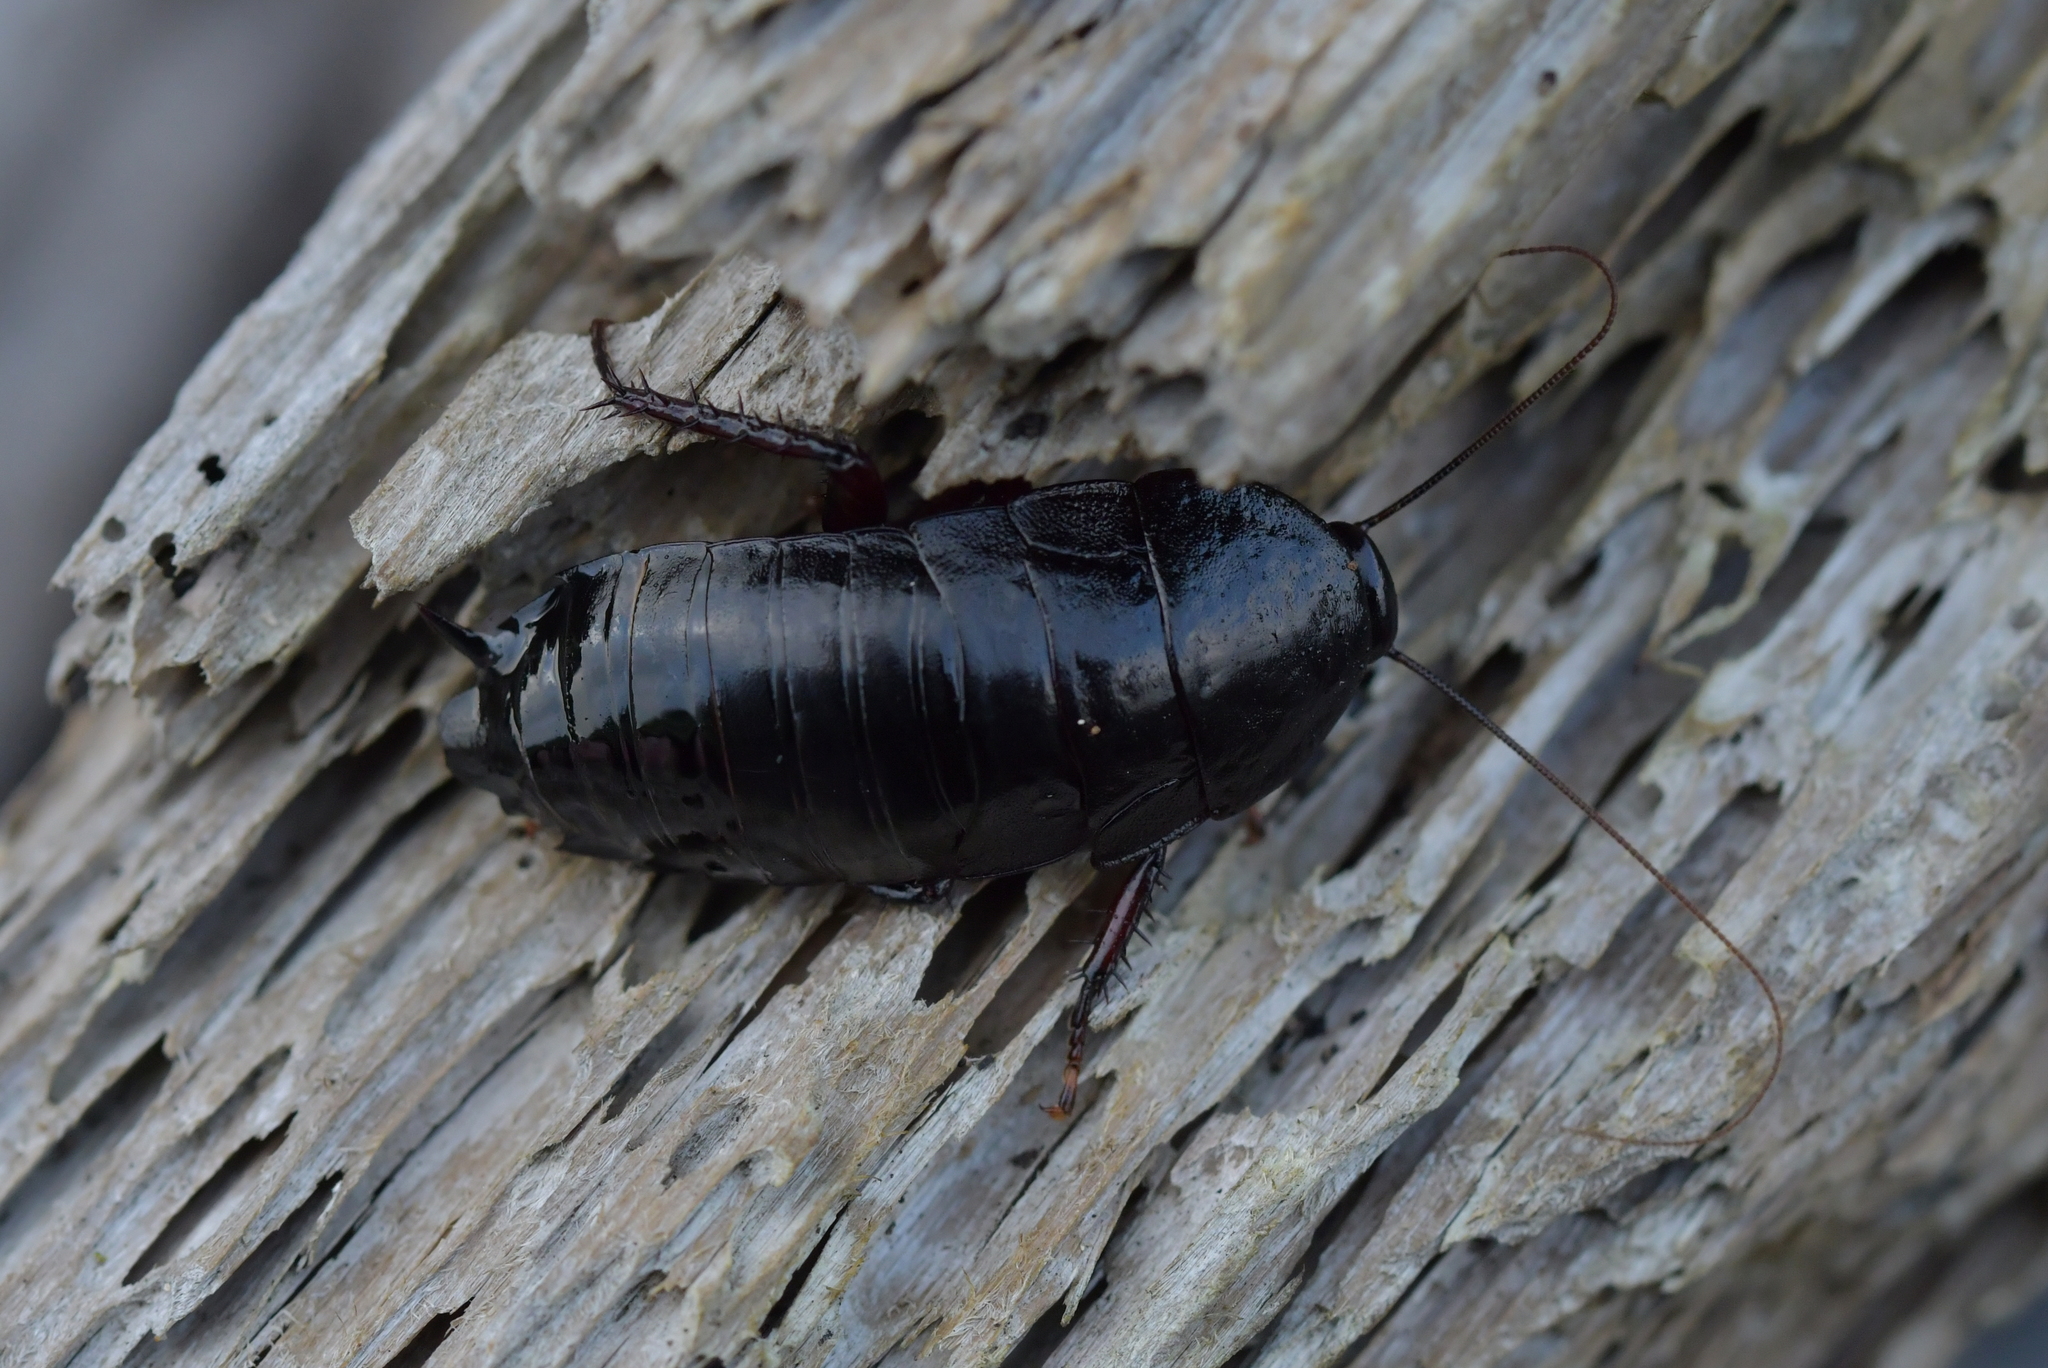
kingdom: Animalia
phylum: Arthropoda
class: Insecta
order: Blattodea
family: Blattidae
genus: Maoriblatta
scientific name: Maoriblatta novaeseelandiae
